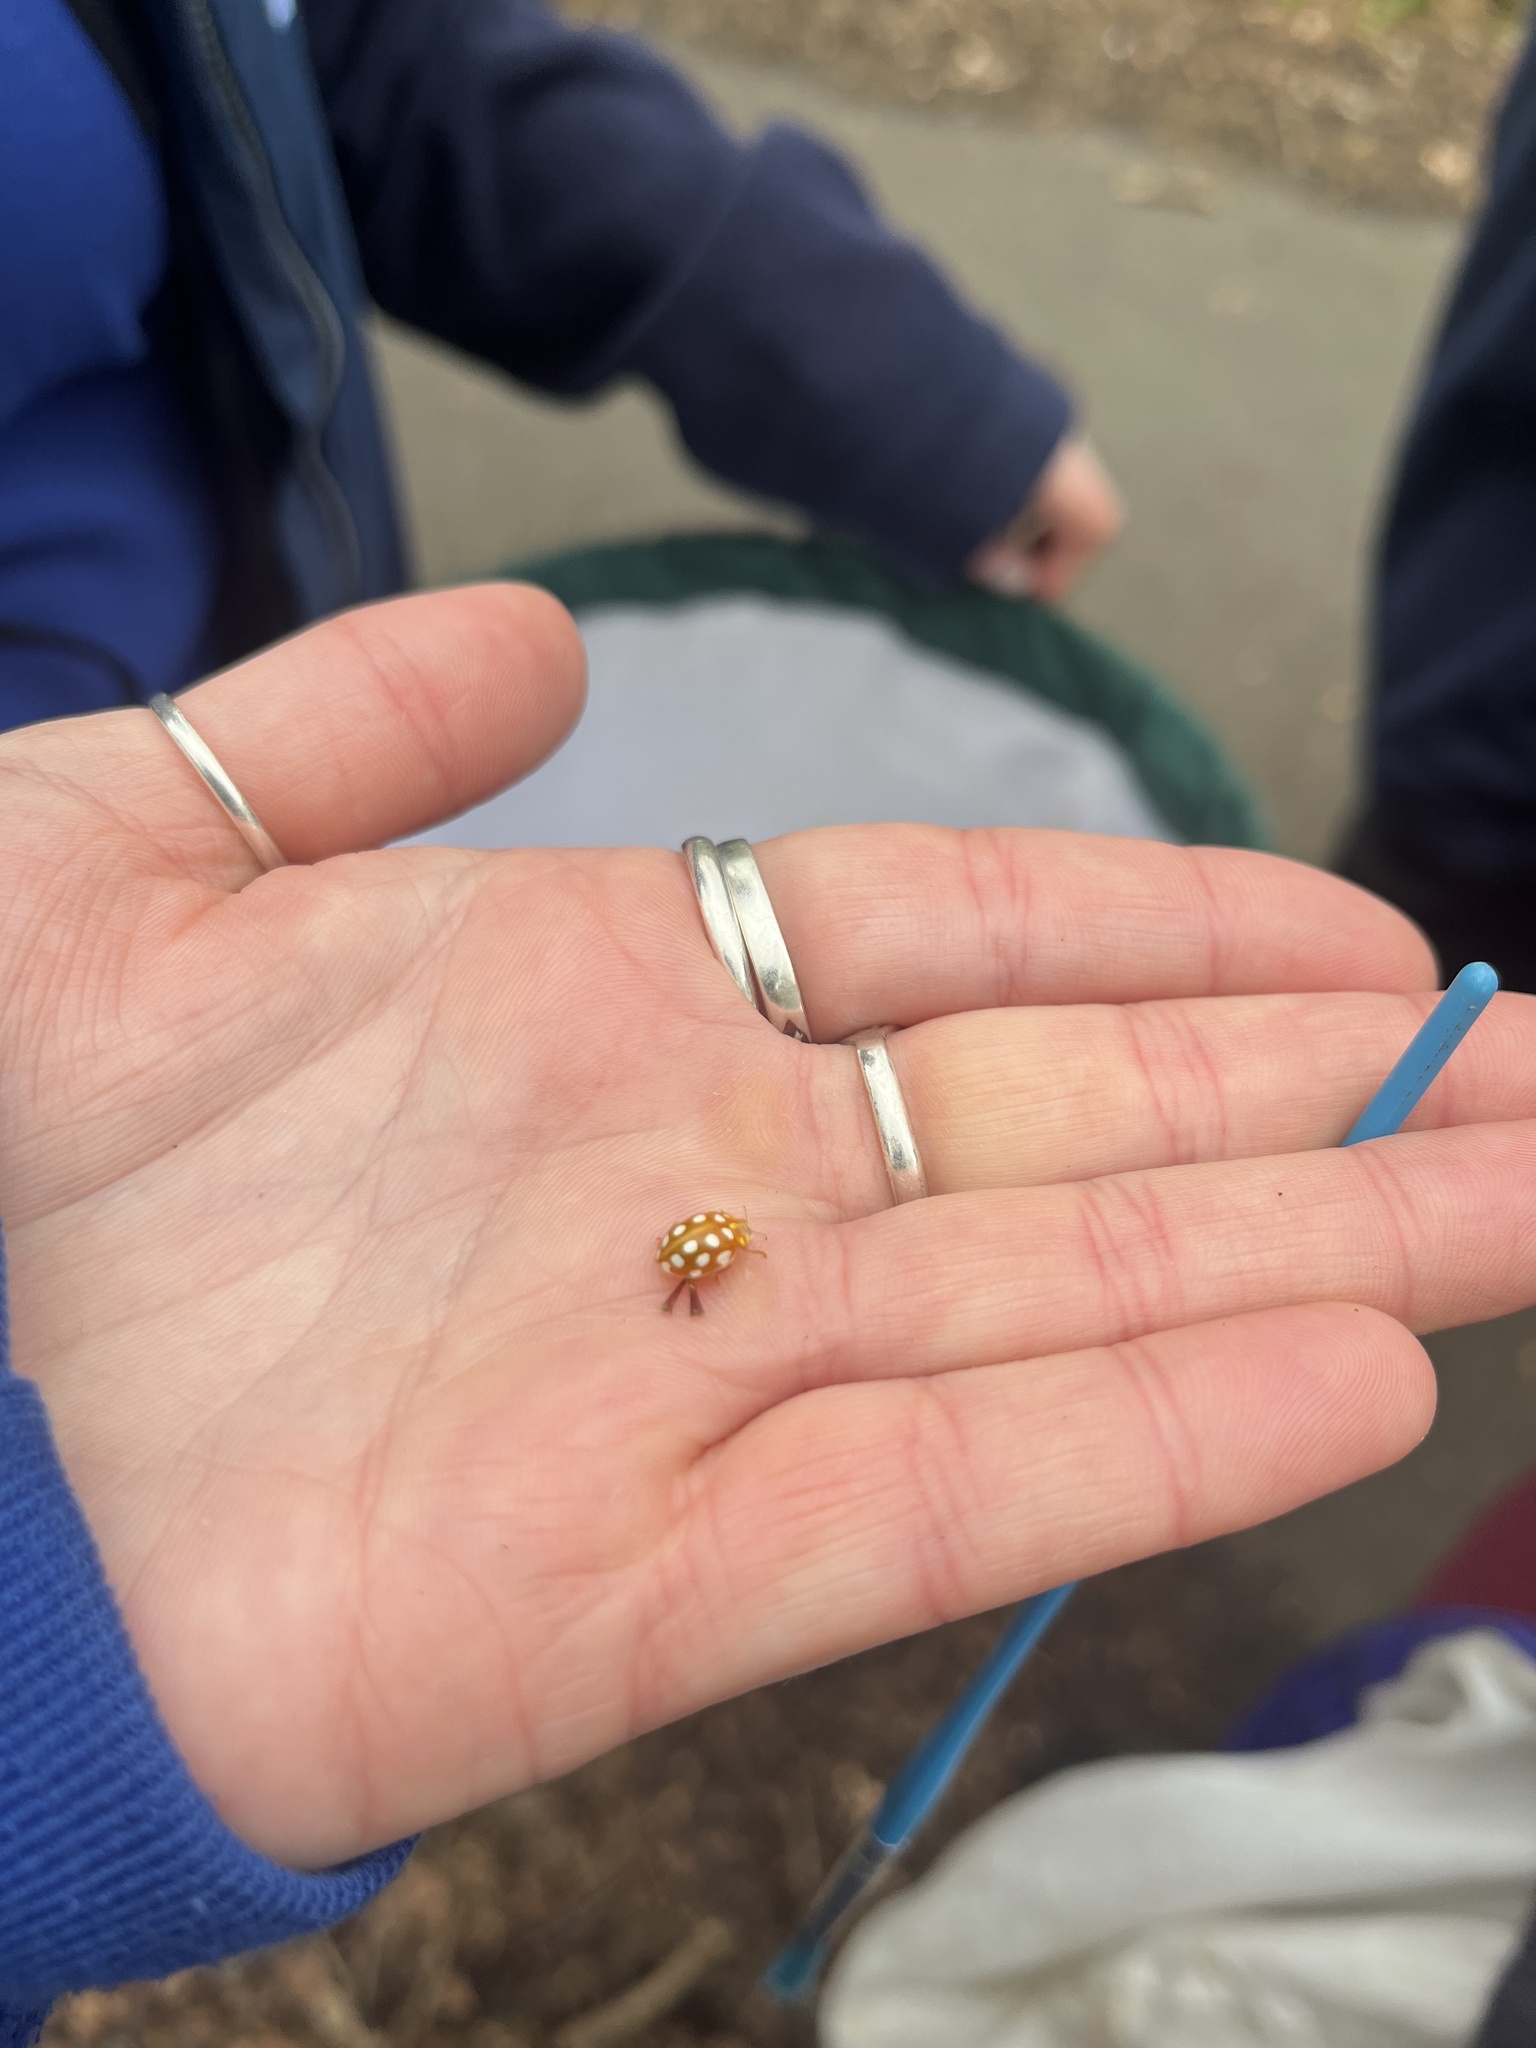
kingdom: Animalia
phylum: Arthropoda
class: Insecta
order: Coleoptera
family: Coccinellidae
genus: Halyzia
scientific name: Halyzia sedecimguttata
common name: Orange ladybird
